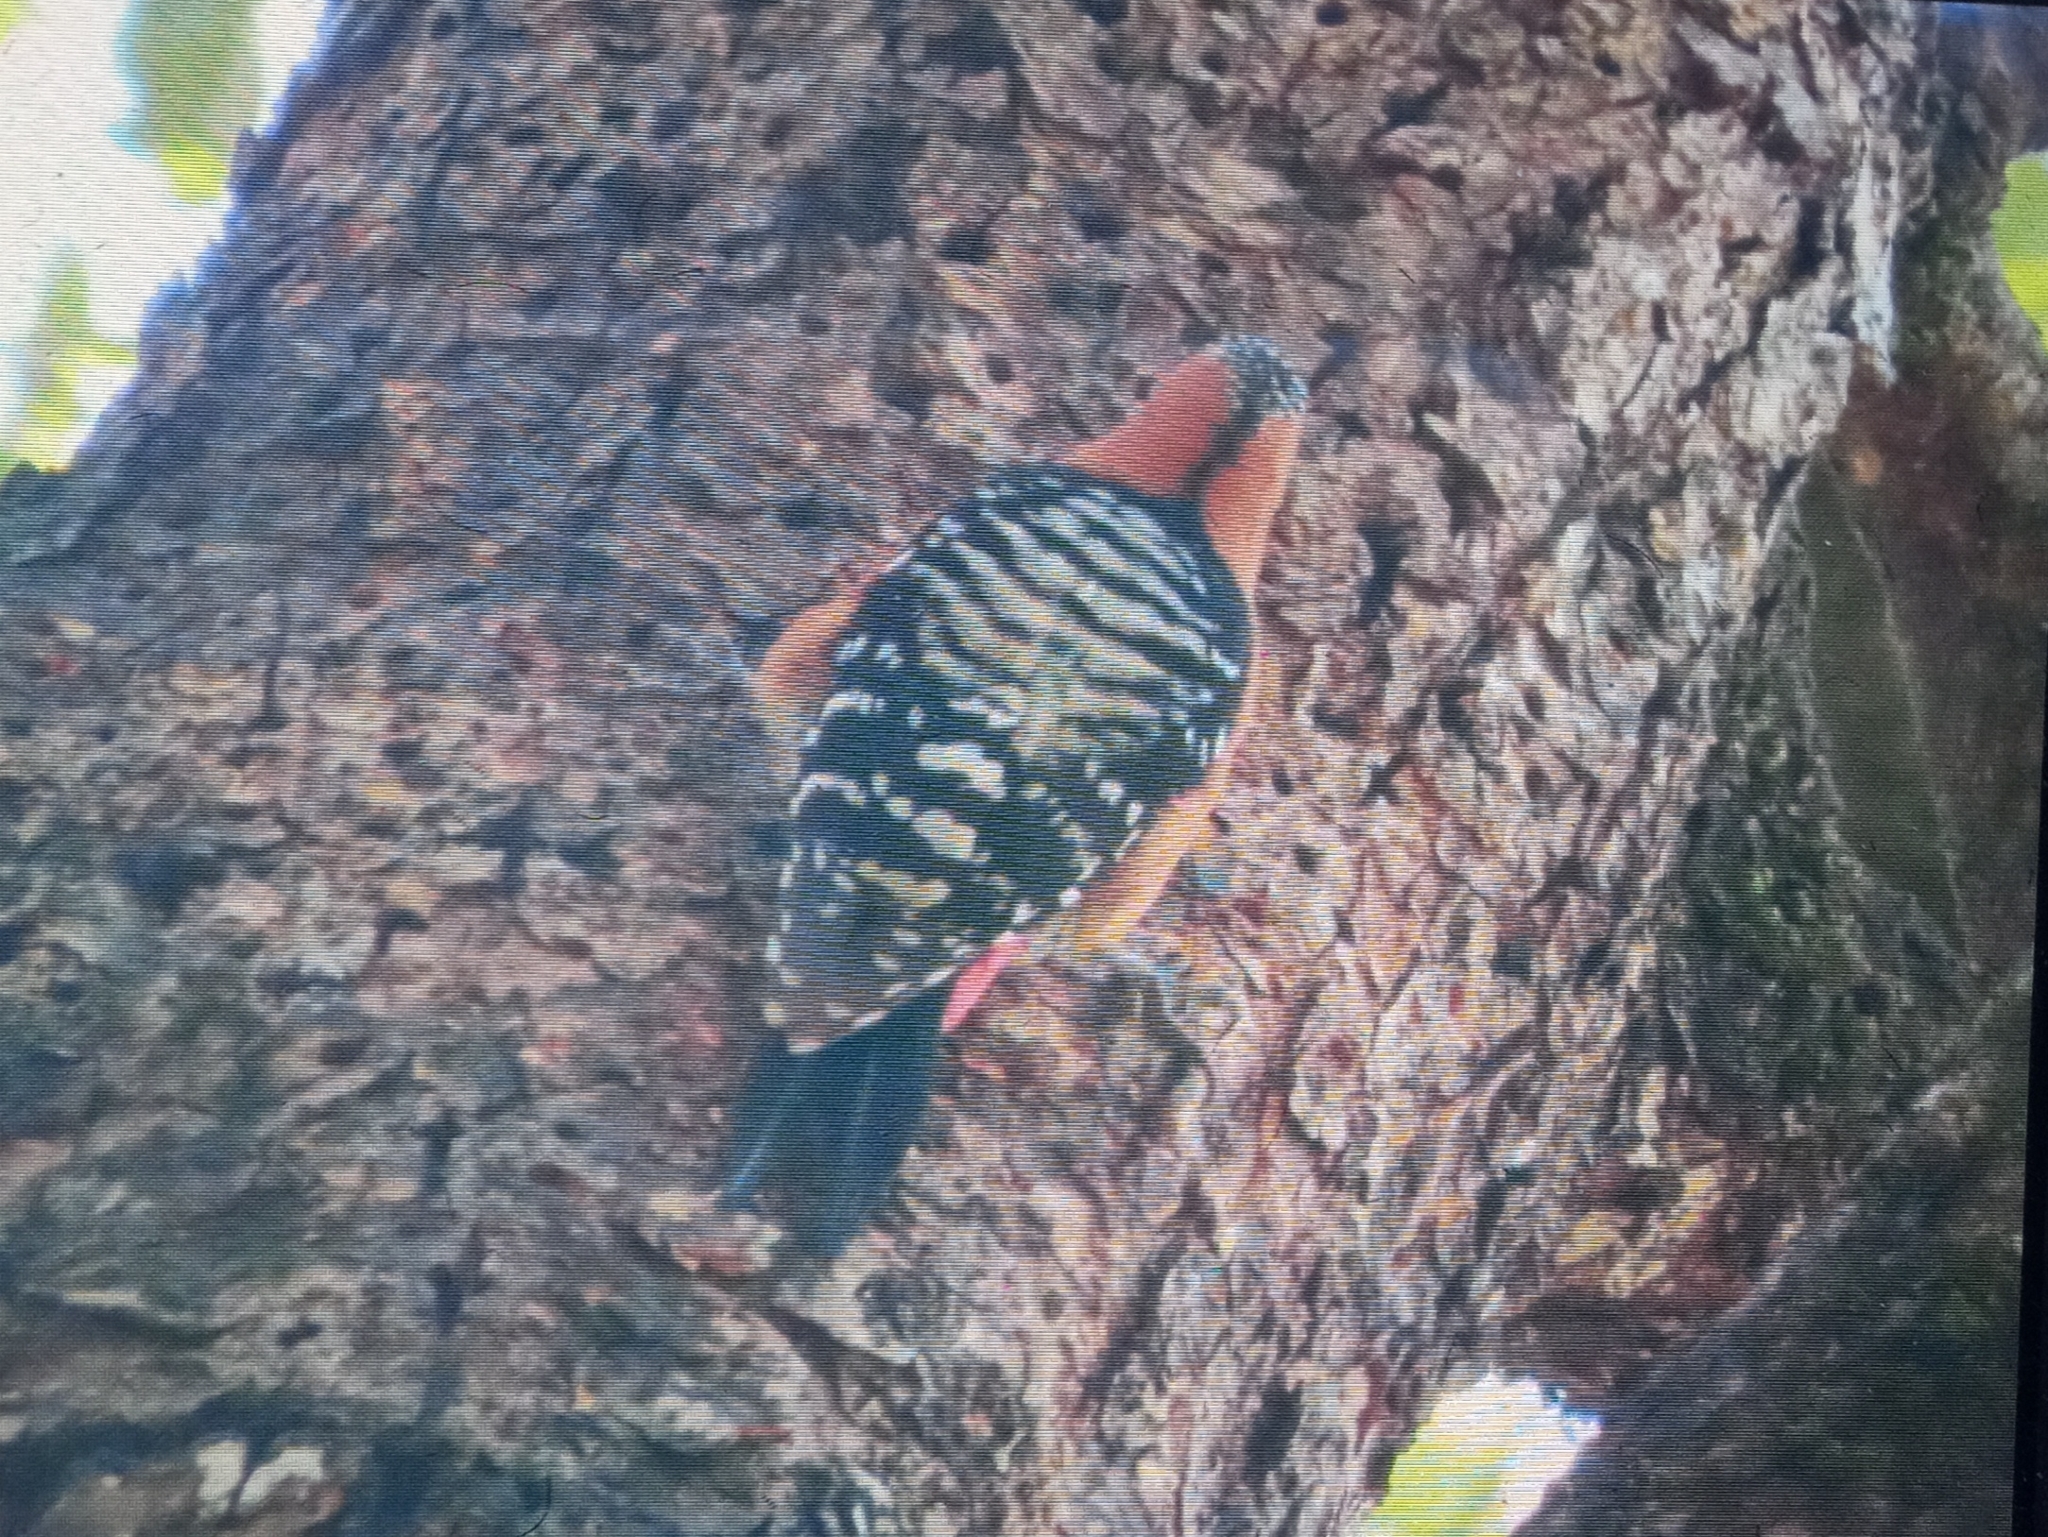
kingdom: Animalia
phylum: Chordata
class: Aves
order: Piciformes
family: Picidae
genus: Dendrocopos
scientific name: Dendrocopos hyperythrus
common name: Rufous-bellied woodpecker
